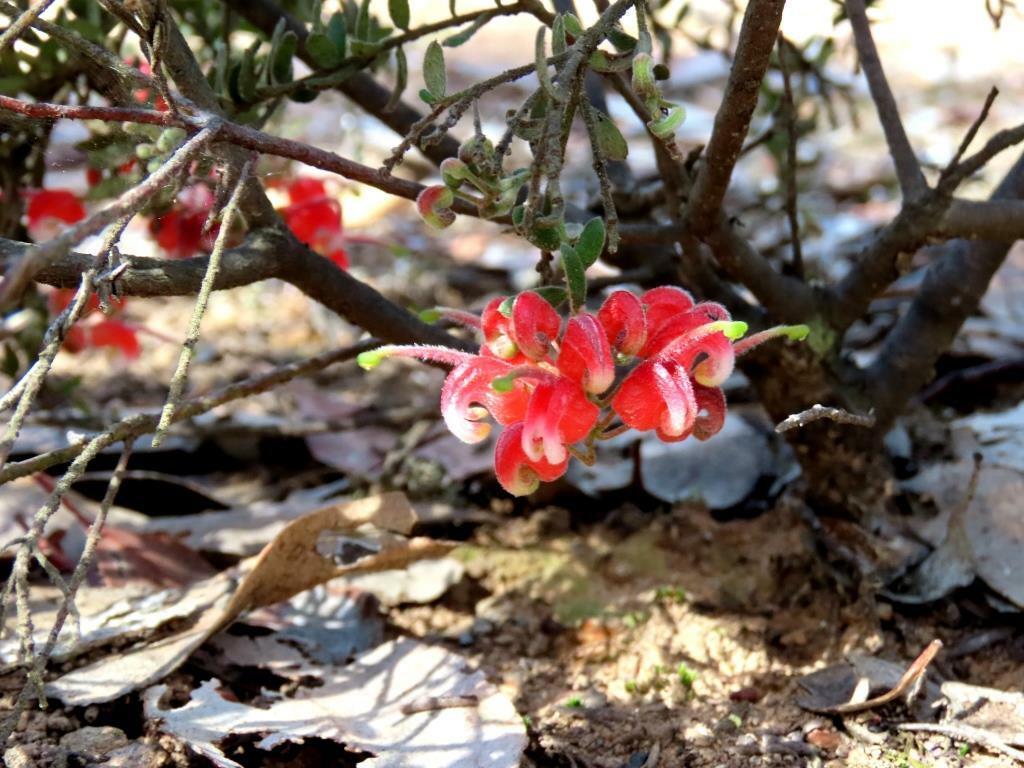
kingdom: Plantae
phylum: Tracheophyta
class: Magnoliopsida
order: Proteales
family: Proteaceae
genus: Grevillea
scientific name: Grevillea alpina
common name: Catclaws grevillea
